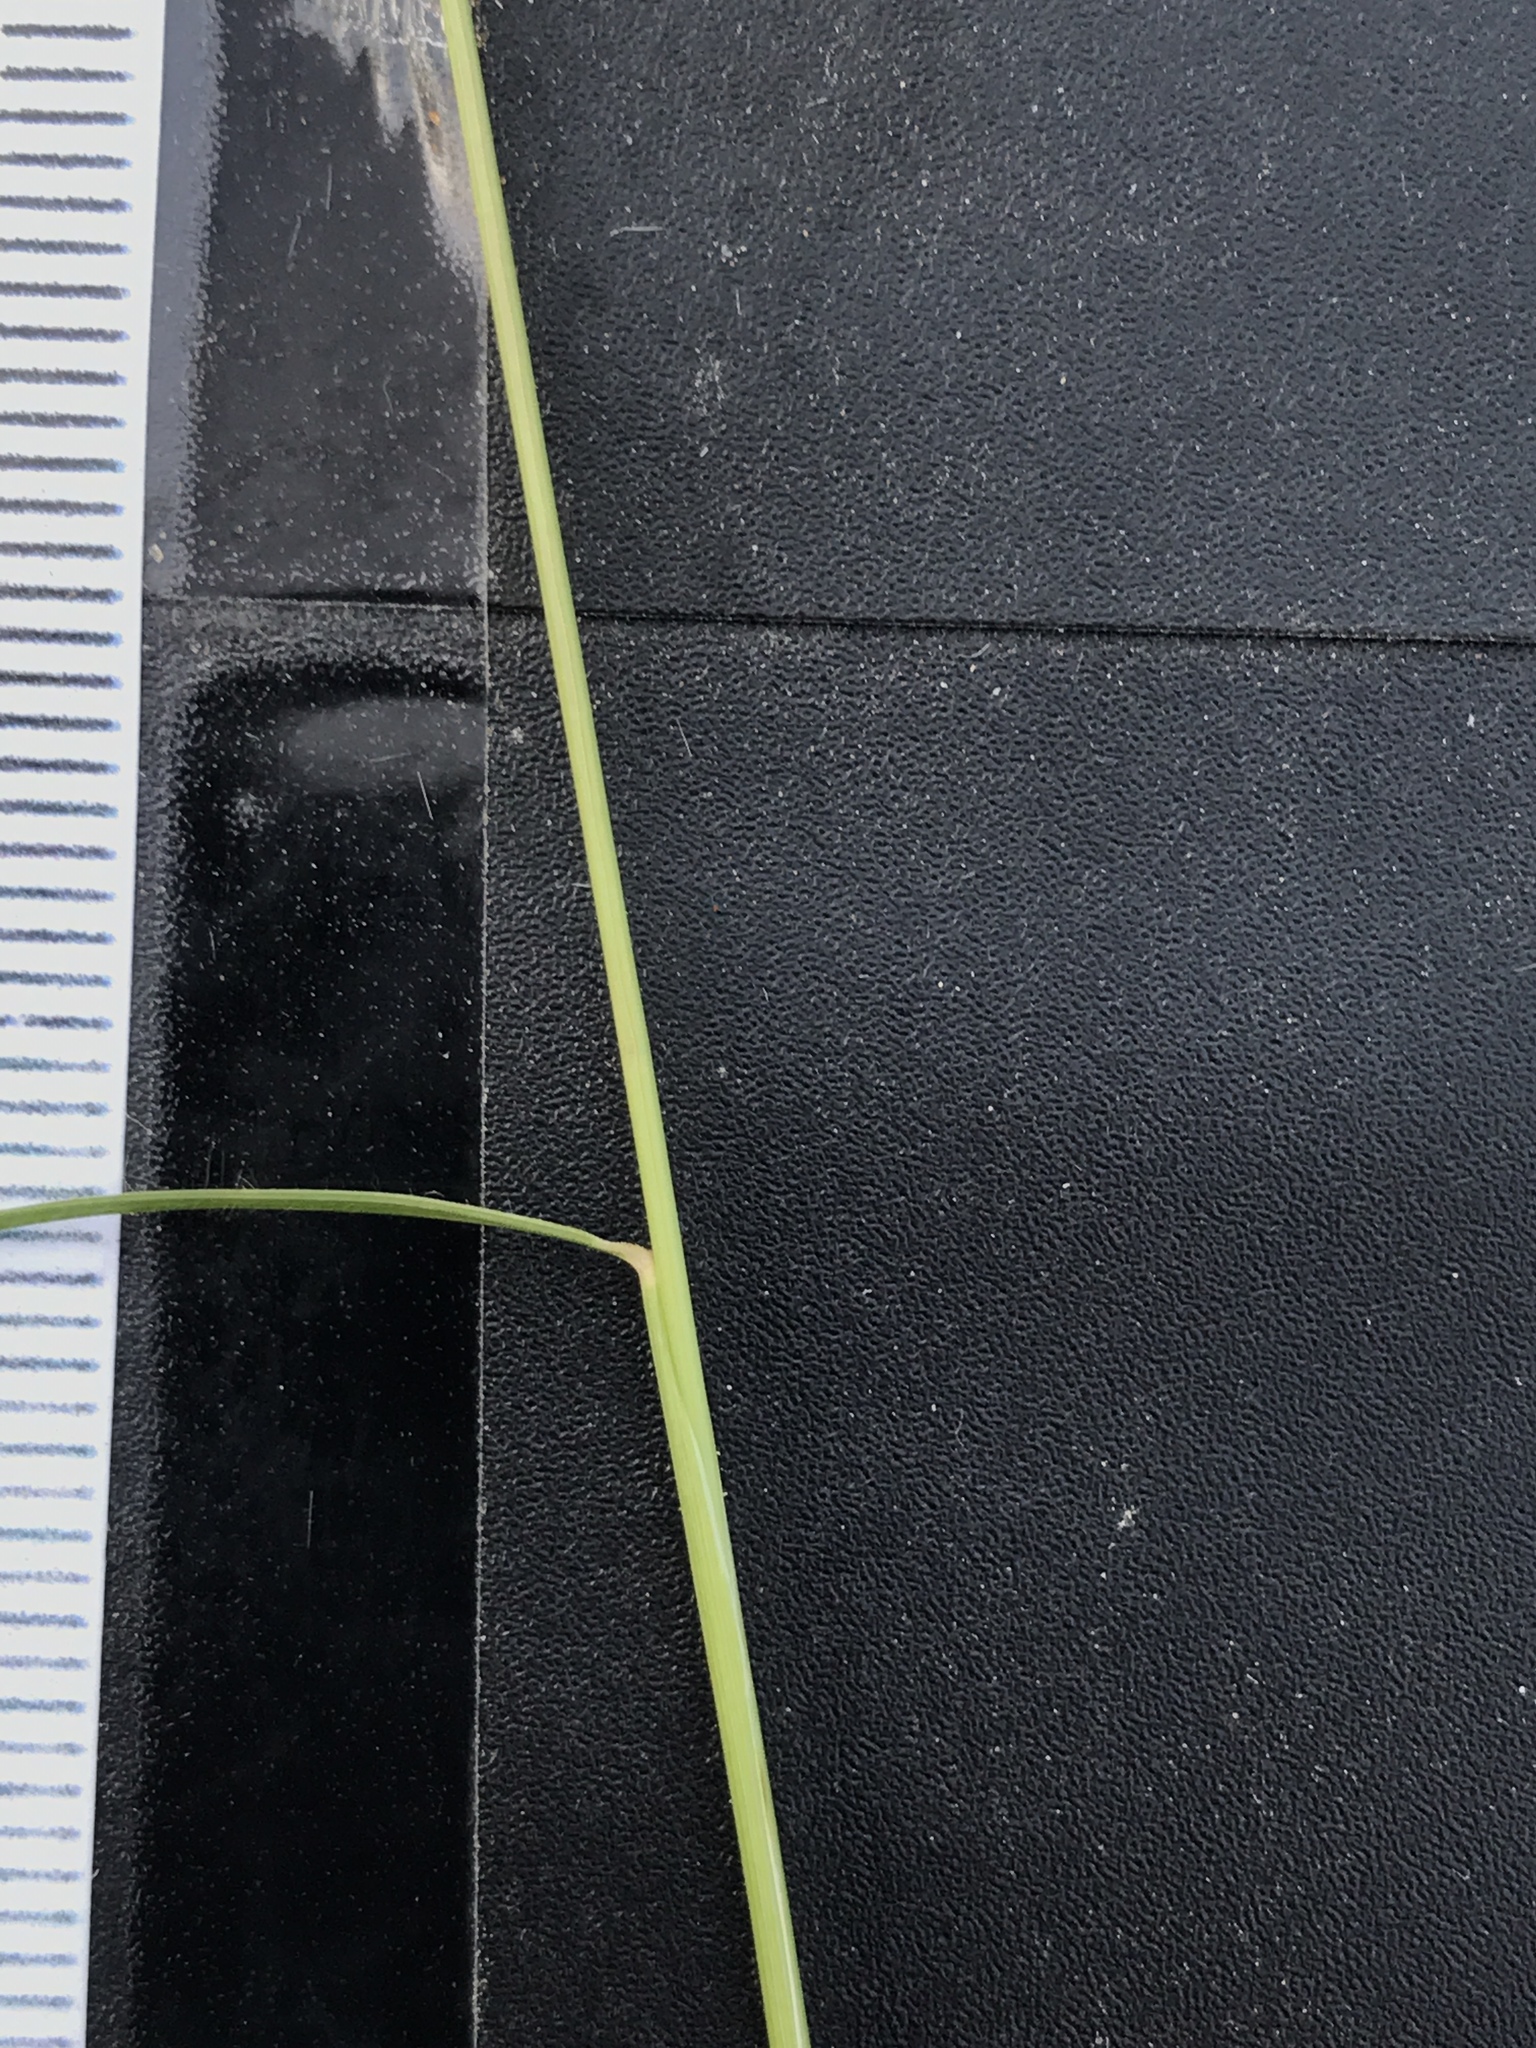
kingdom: Plantae
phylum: Tracheophyta
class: Liliopsida
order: Poales
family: Poaceae
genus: Bouteloua
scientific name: Bouteloua rigidiseta
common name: Texas grama
